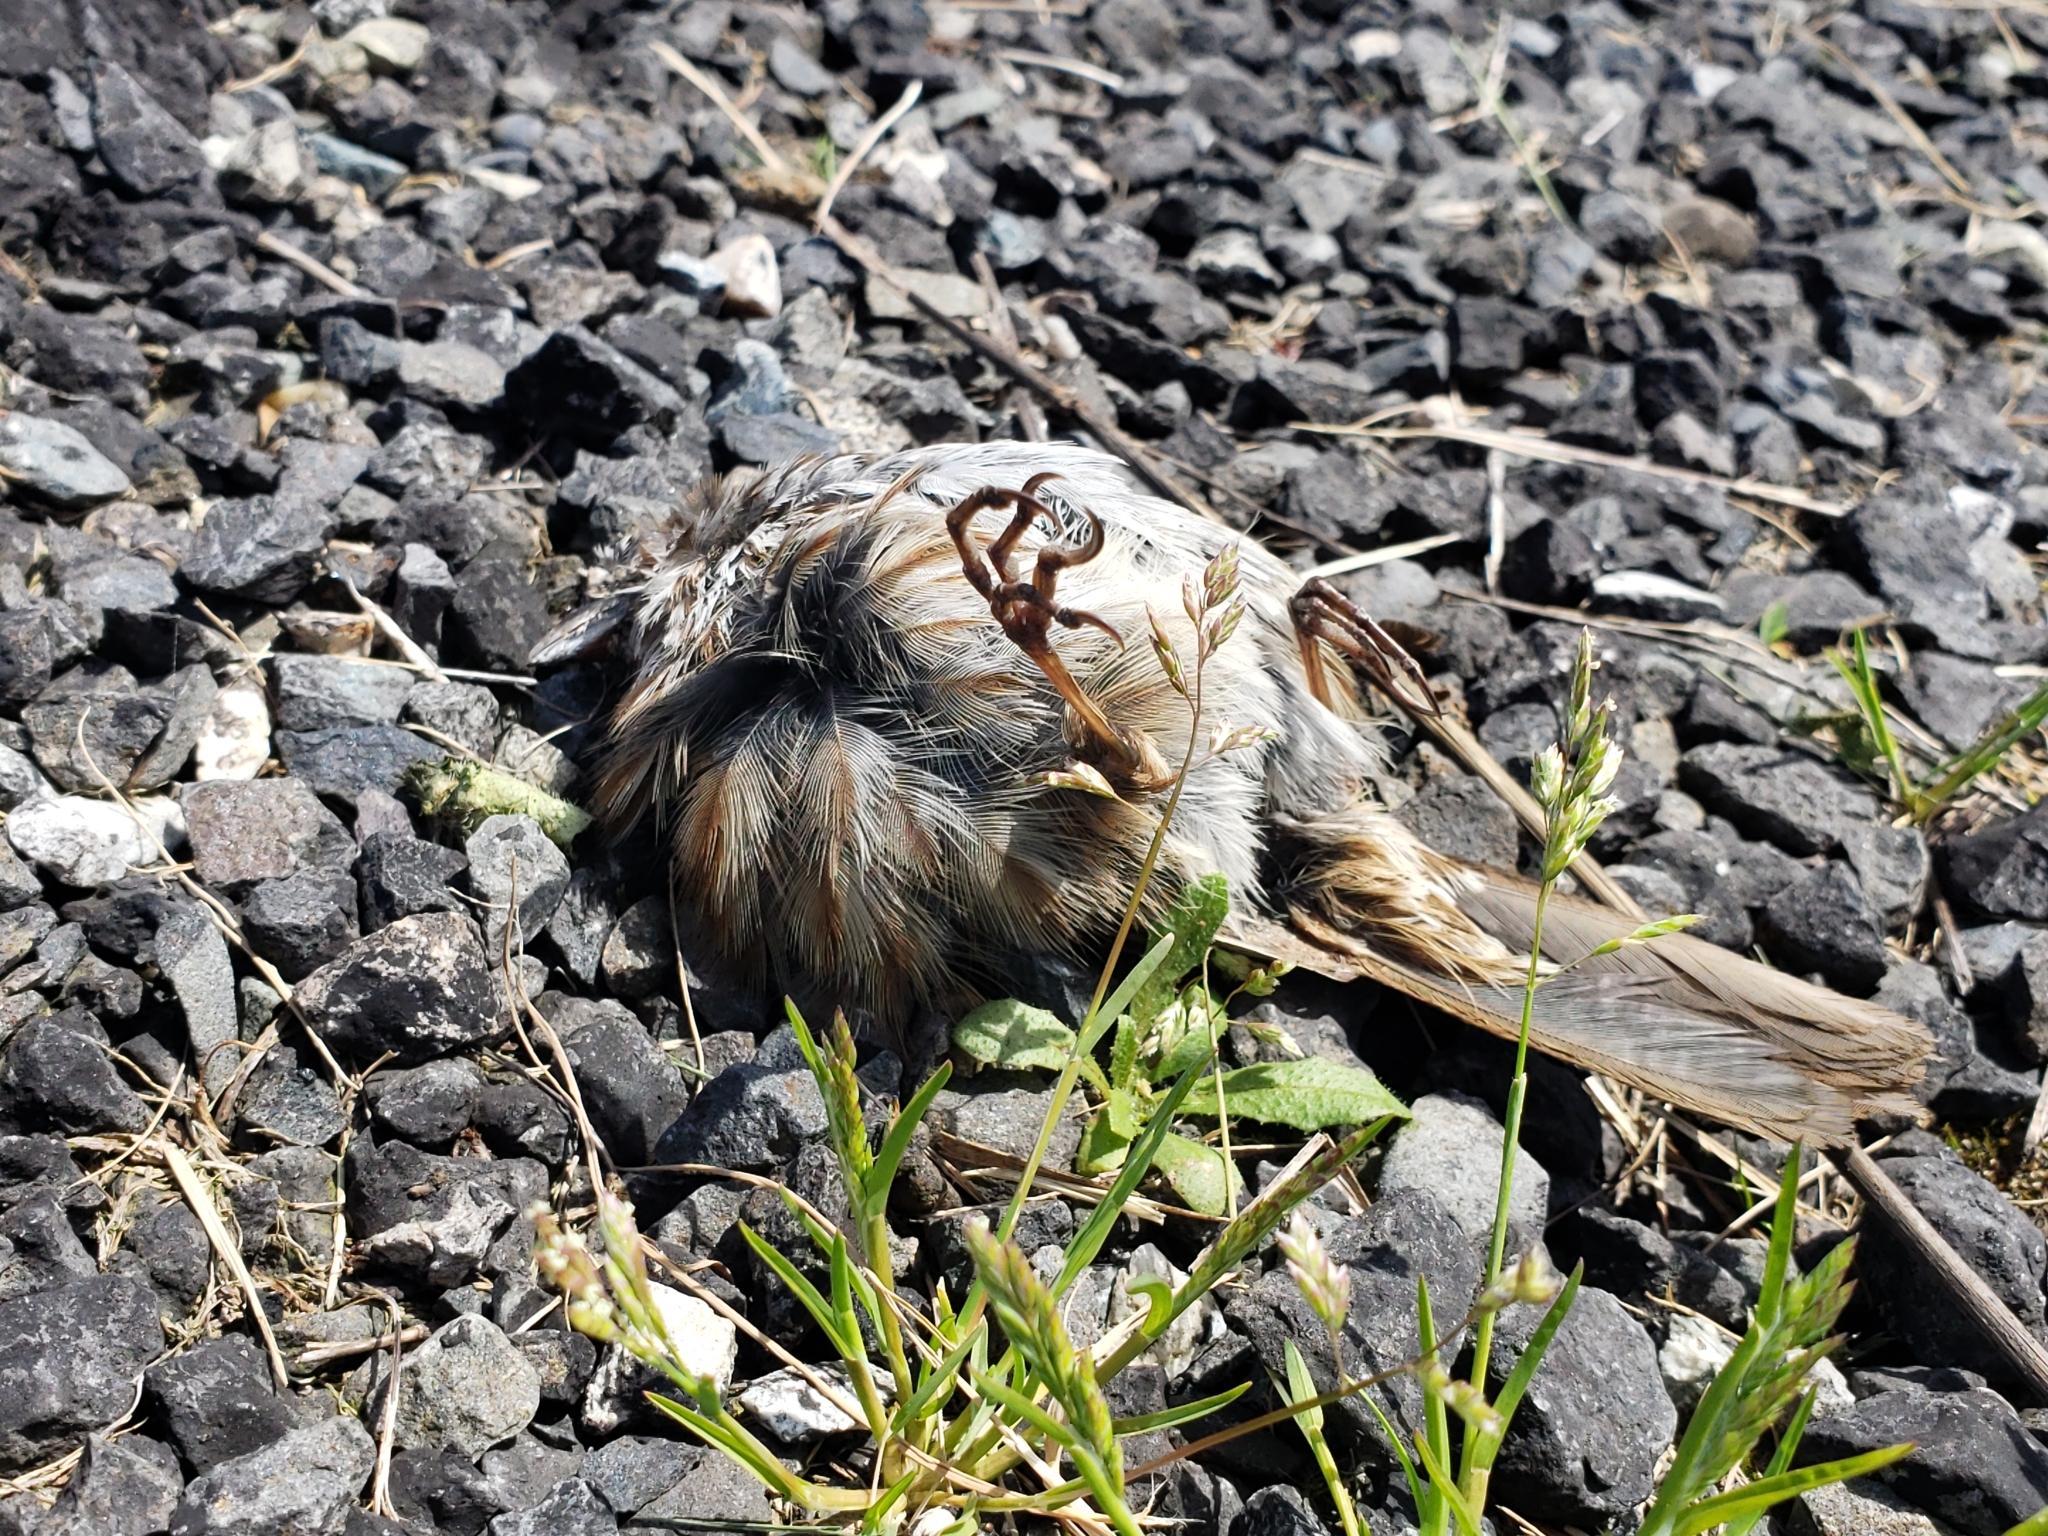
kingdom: Animalia
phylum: Chordata
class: Aves
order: Passeriformes
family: Passerellidae
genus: Melospiza
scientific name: Melospiza melodia
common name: Song sparrow
